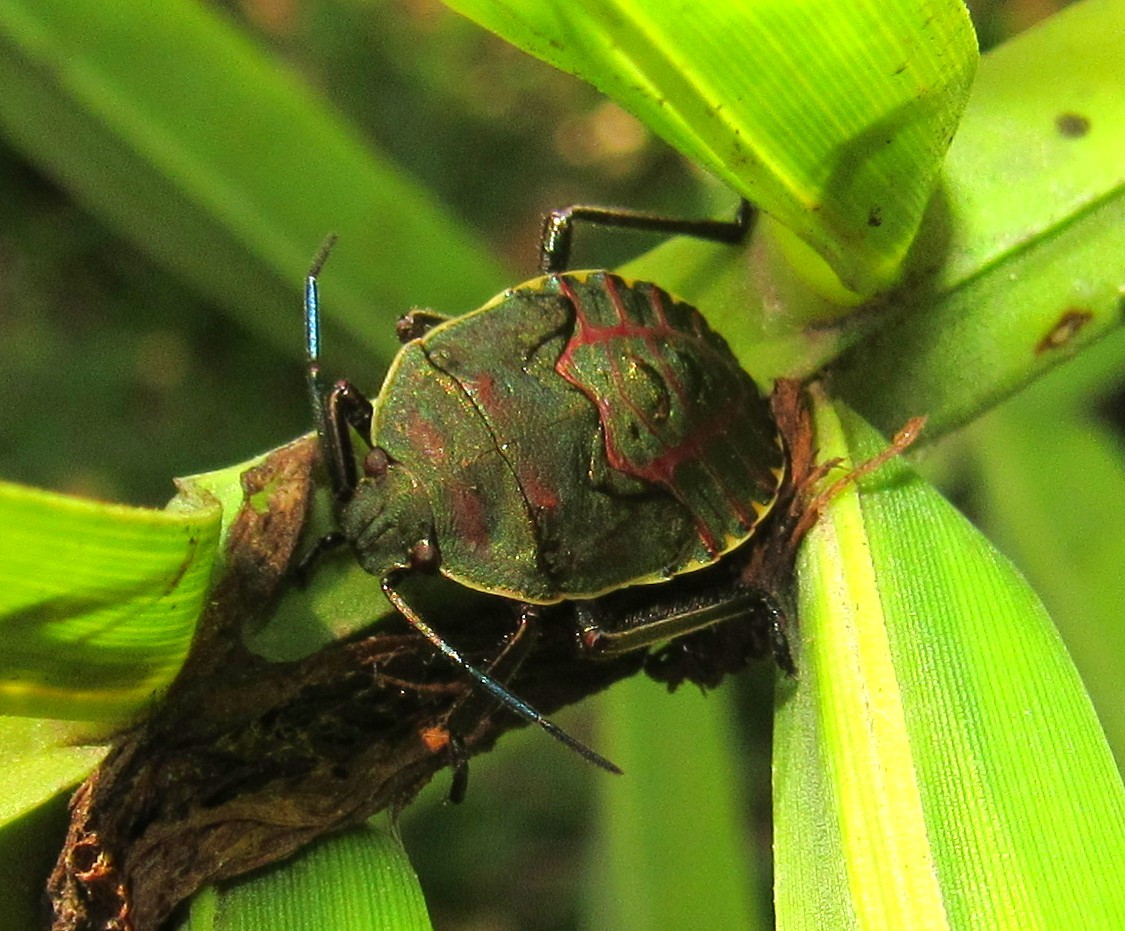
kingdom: Animalia
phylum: Arthropoda
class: Insecta
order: Hemiptera
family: Pentatomidae
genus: Pellaea
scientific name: Pellaea stictica
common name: Stink bug
